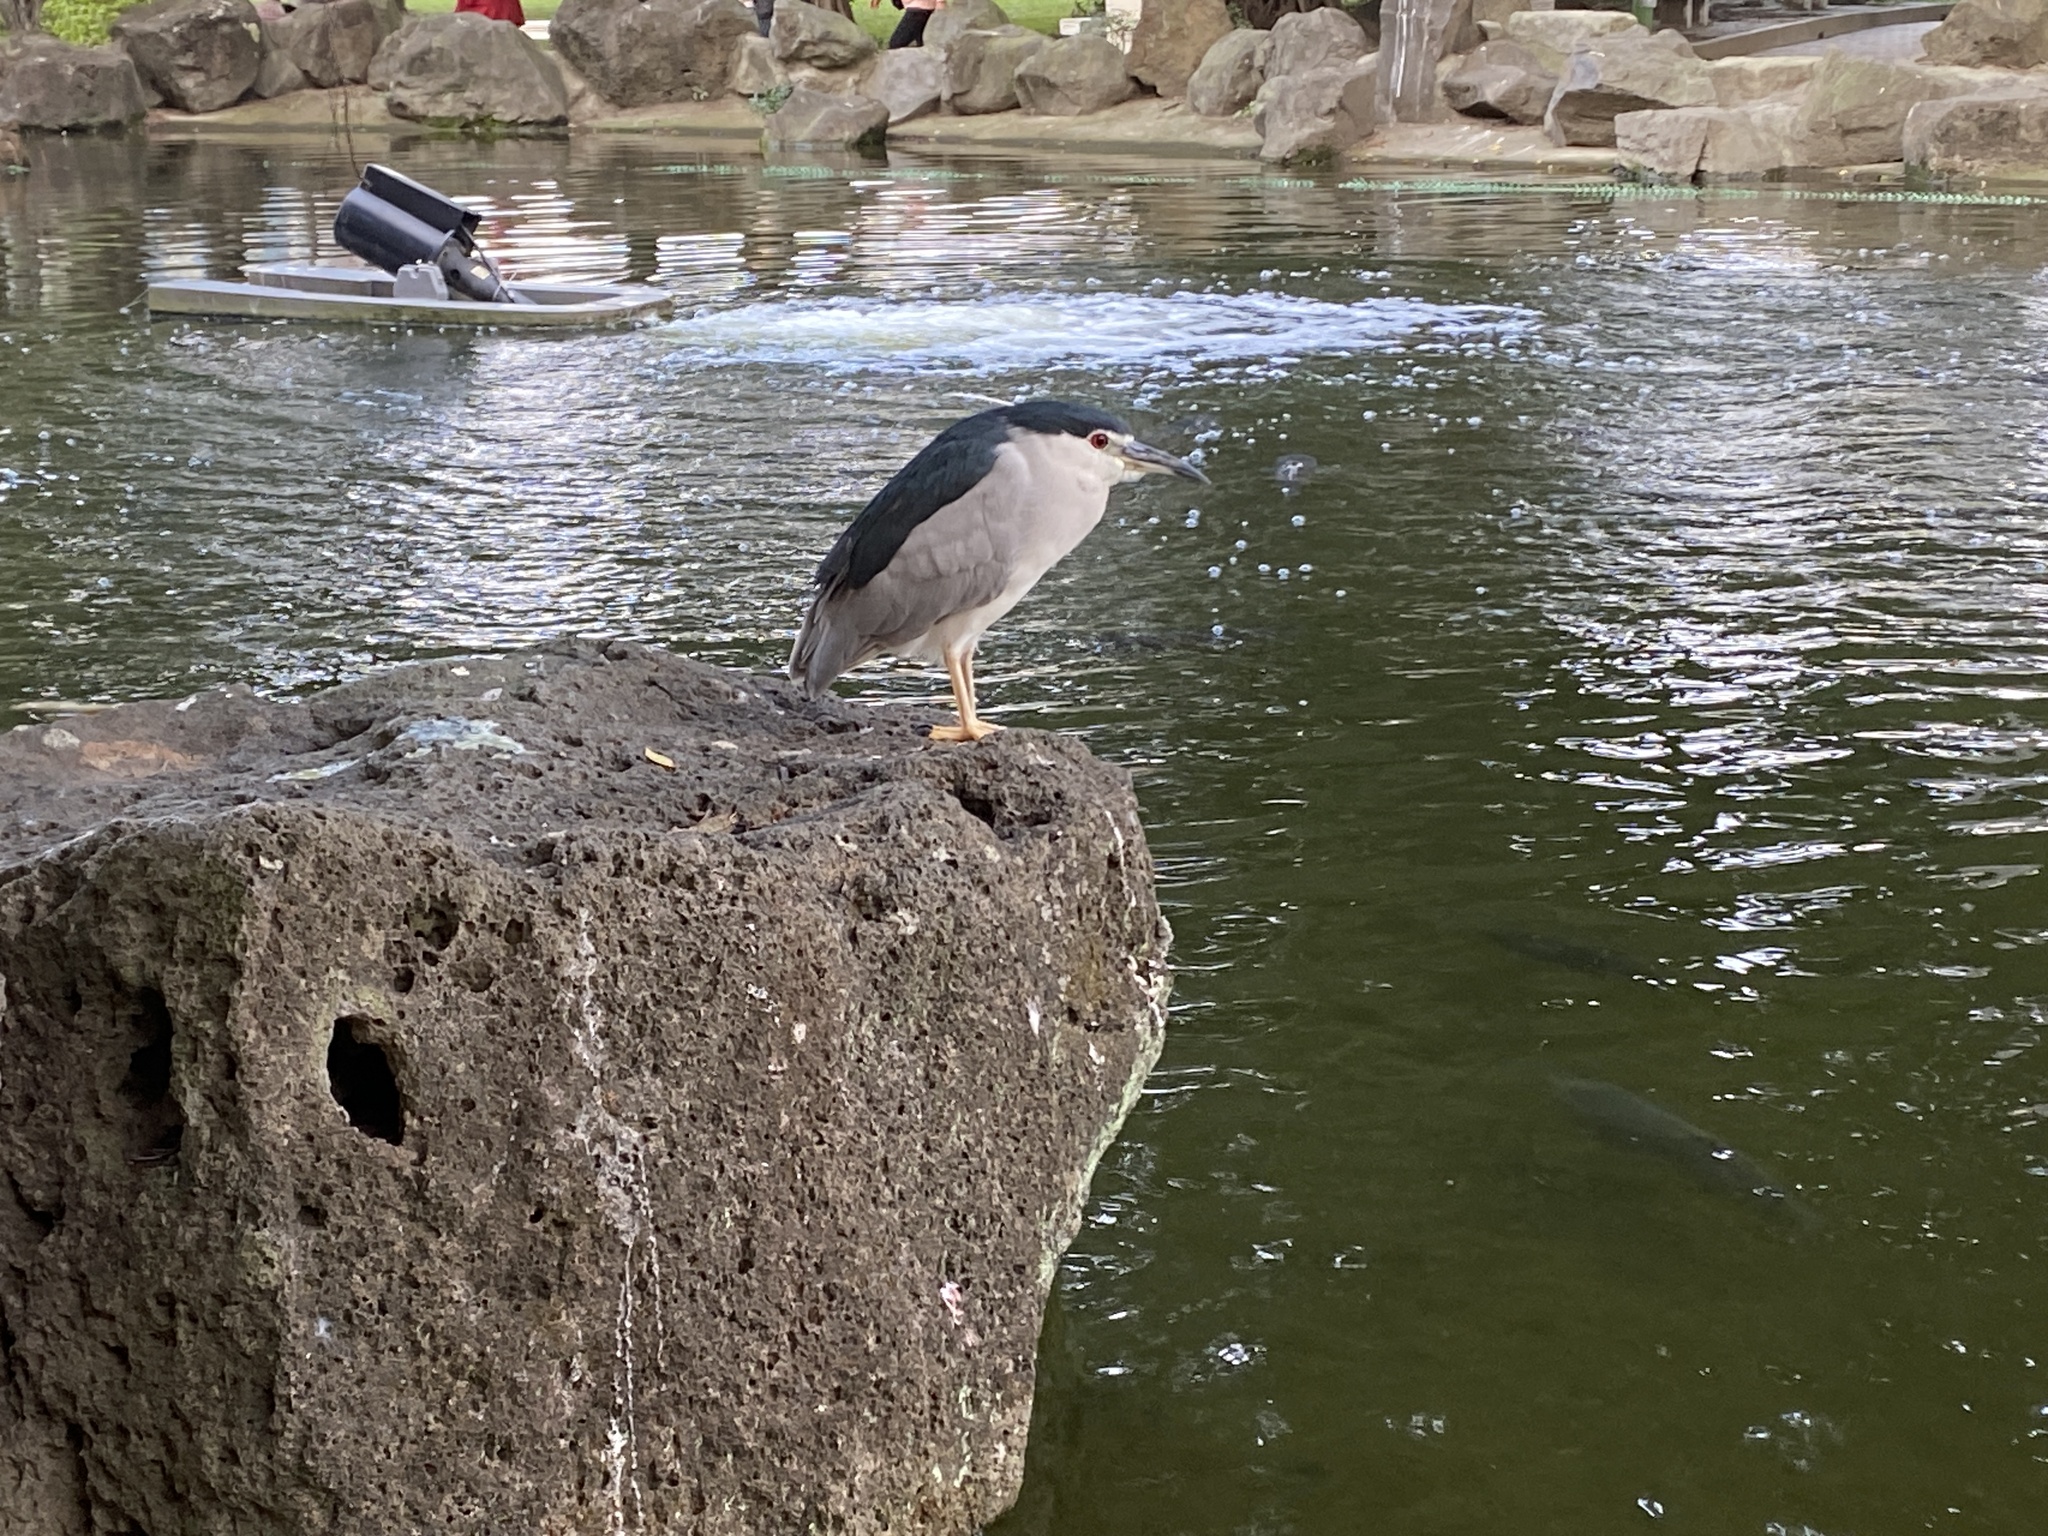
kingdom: Animalia
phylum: Chordata
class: Aves
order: Pelecaniformes
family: Ardeidae
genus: Nycticorax
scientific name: Nycticorax nycticorax
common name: Black-crowned night heron
